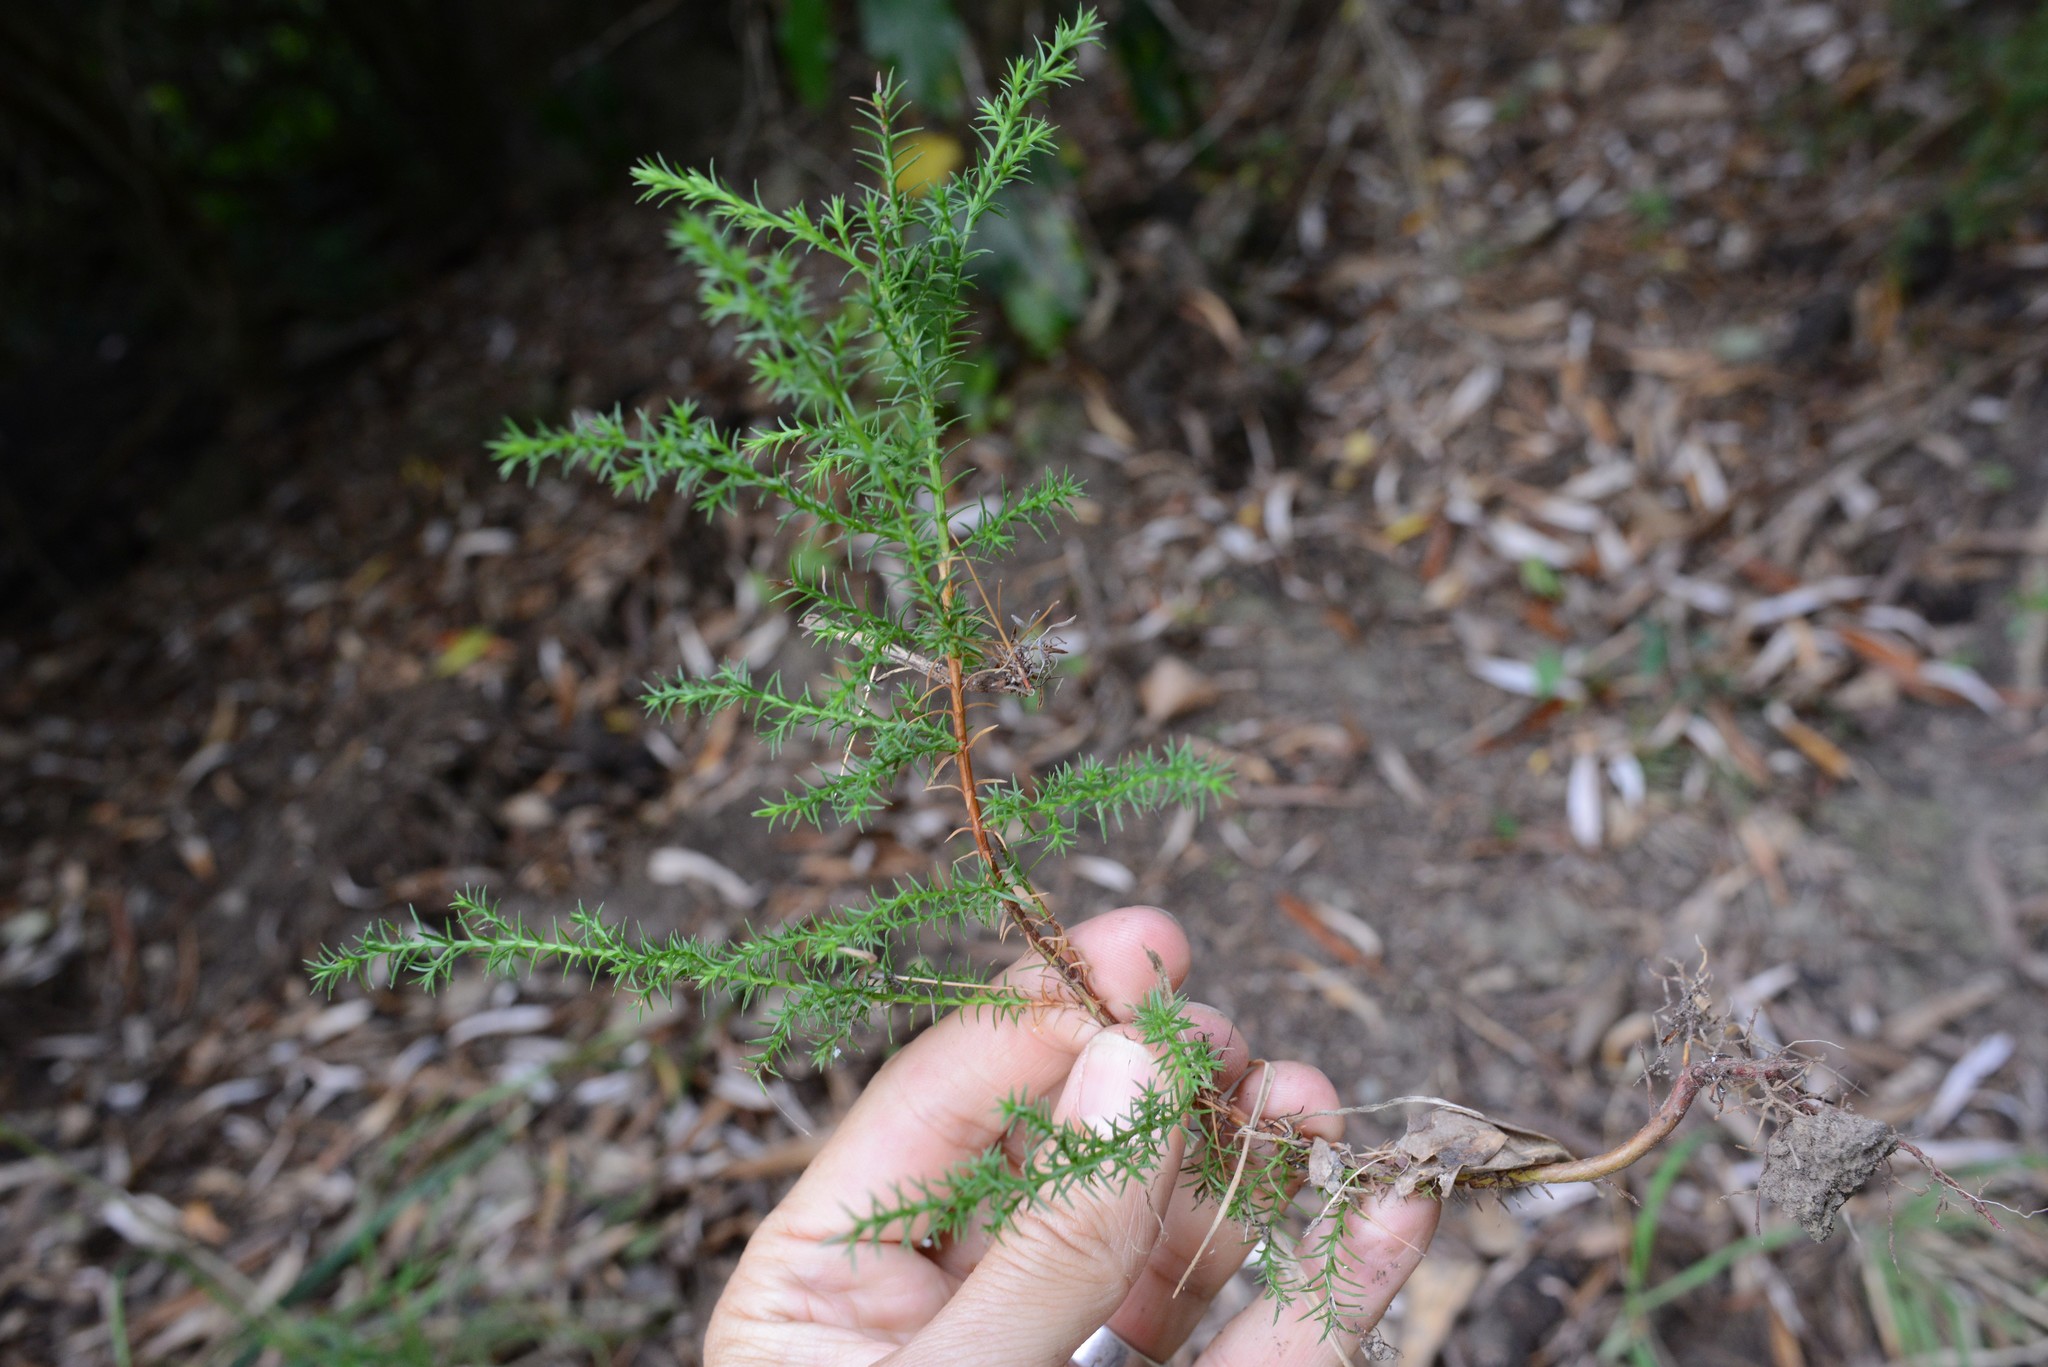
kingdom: Plantae
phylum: Tracheophyta
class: Pinopsida
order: Pinales
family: Cupressaceae
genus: Cupressus
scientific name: Cupressus macrocarpa
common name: Monterey cypress
